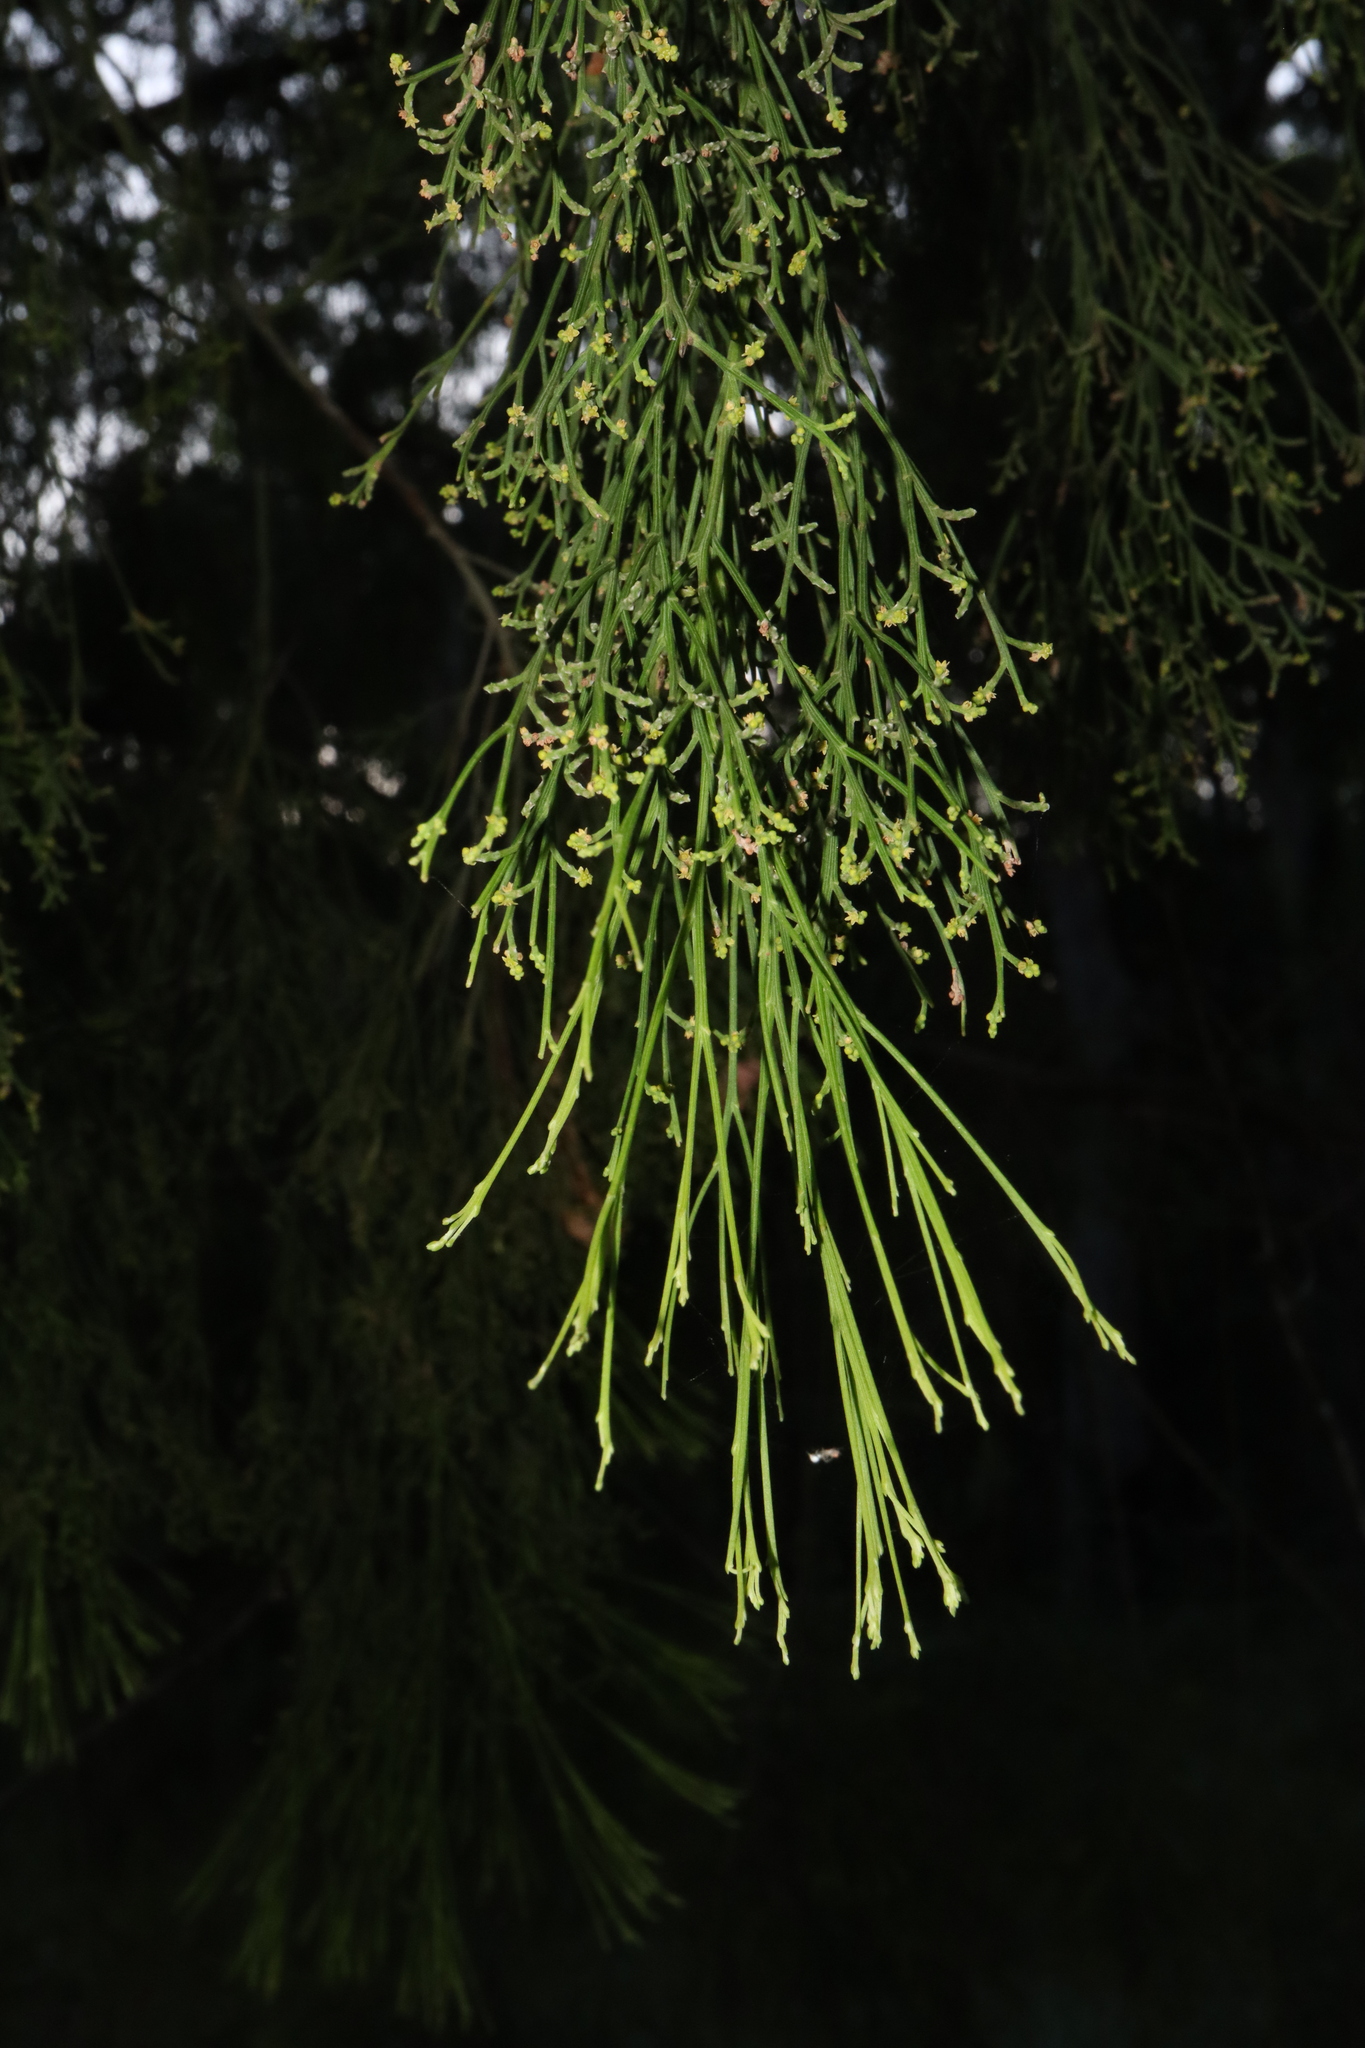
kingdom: Plantae
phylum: Tracheophyta
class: Magnoliopsida
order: Santalales
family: Santalaceae
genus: Exocarpos
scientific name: Exocarpos cupressiformis
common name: Cherry ballart
